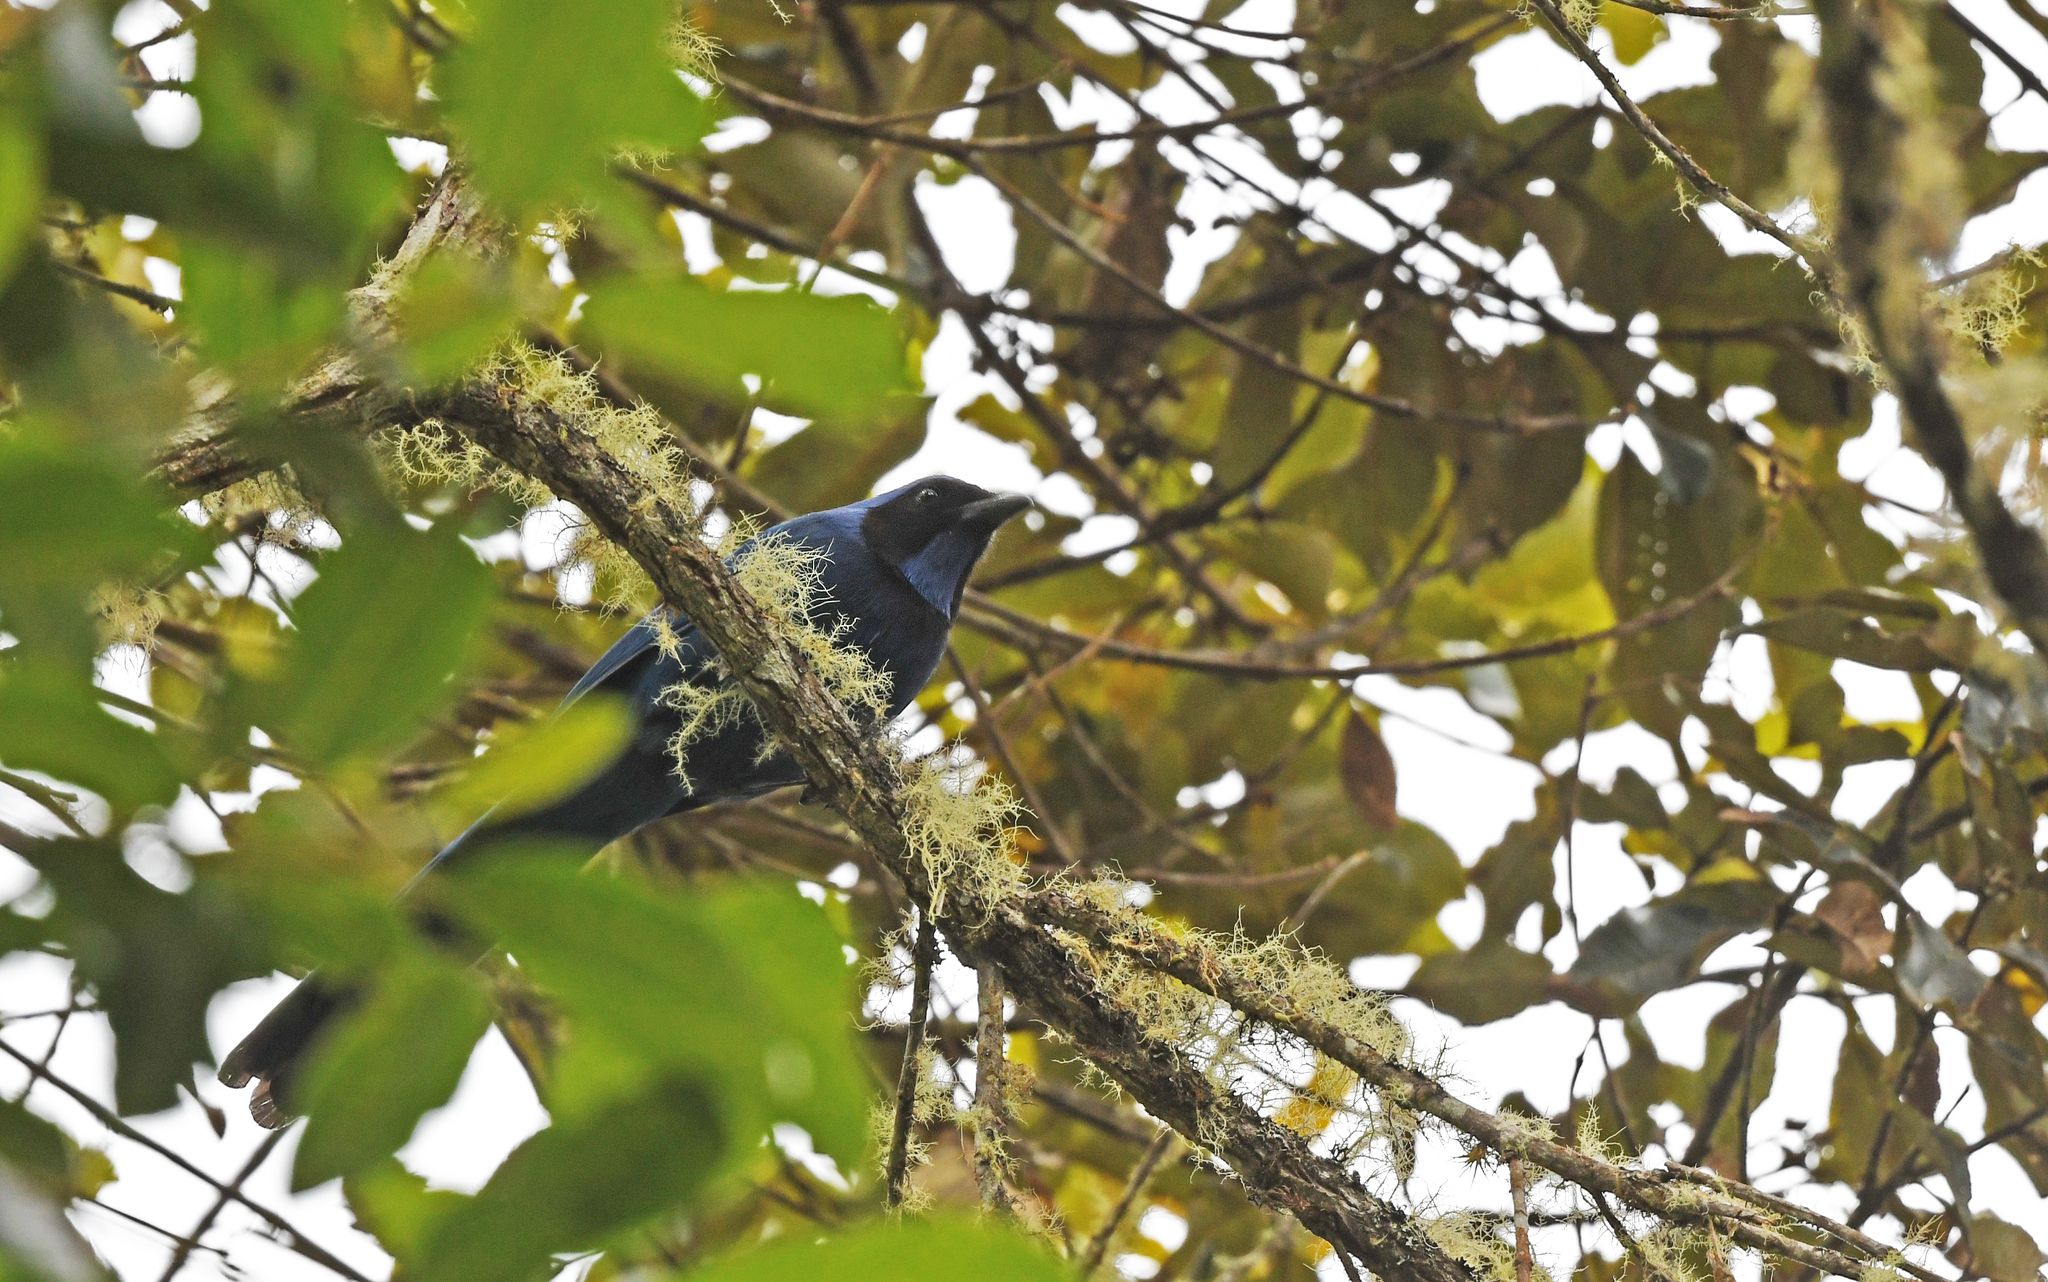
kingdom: Animalia
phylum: Chordata
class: Aves
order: Passeriformes
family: Corvidae
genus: Cyanolyca
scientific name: Cyanolyca armillata
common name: Black-collared jay
